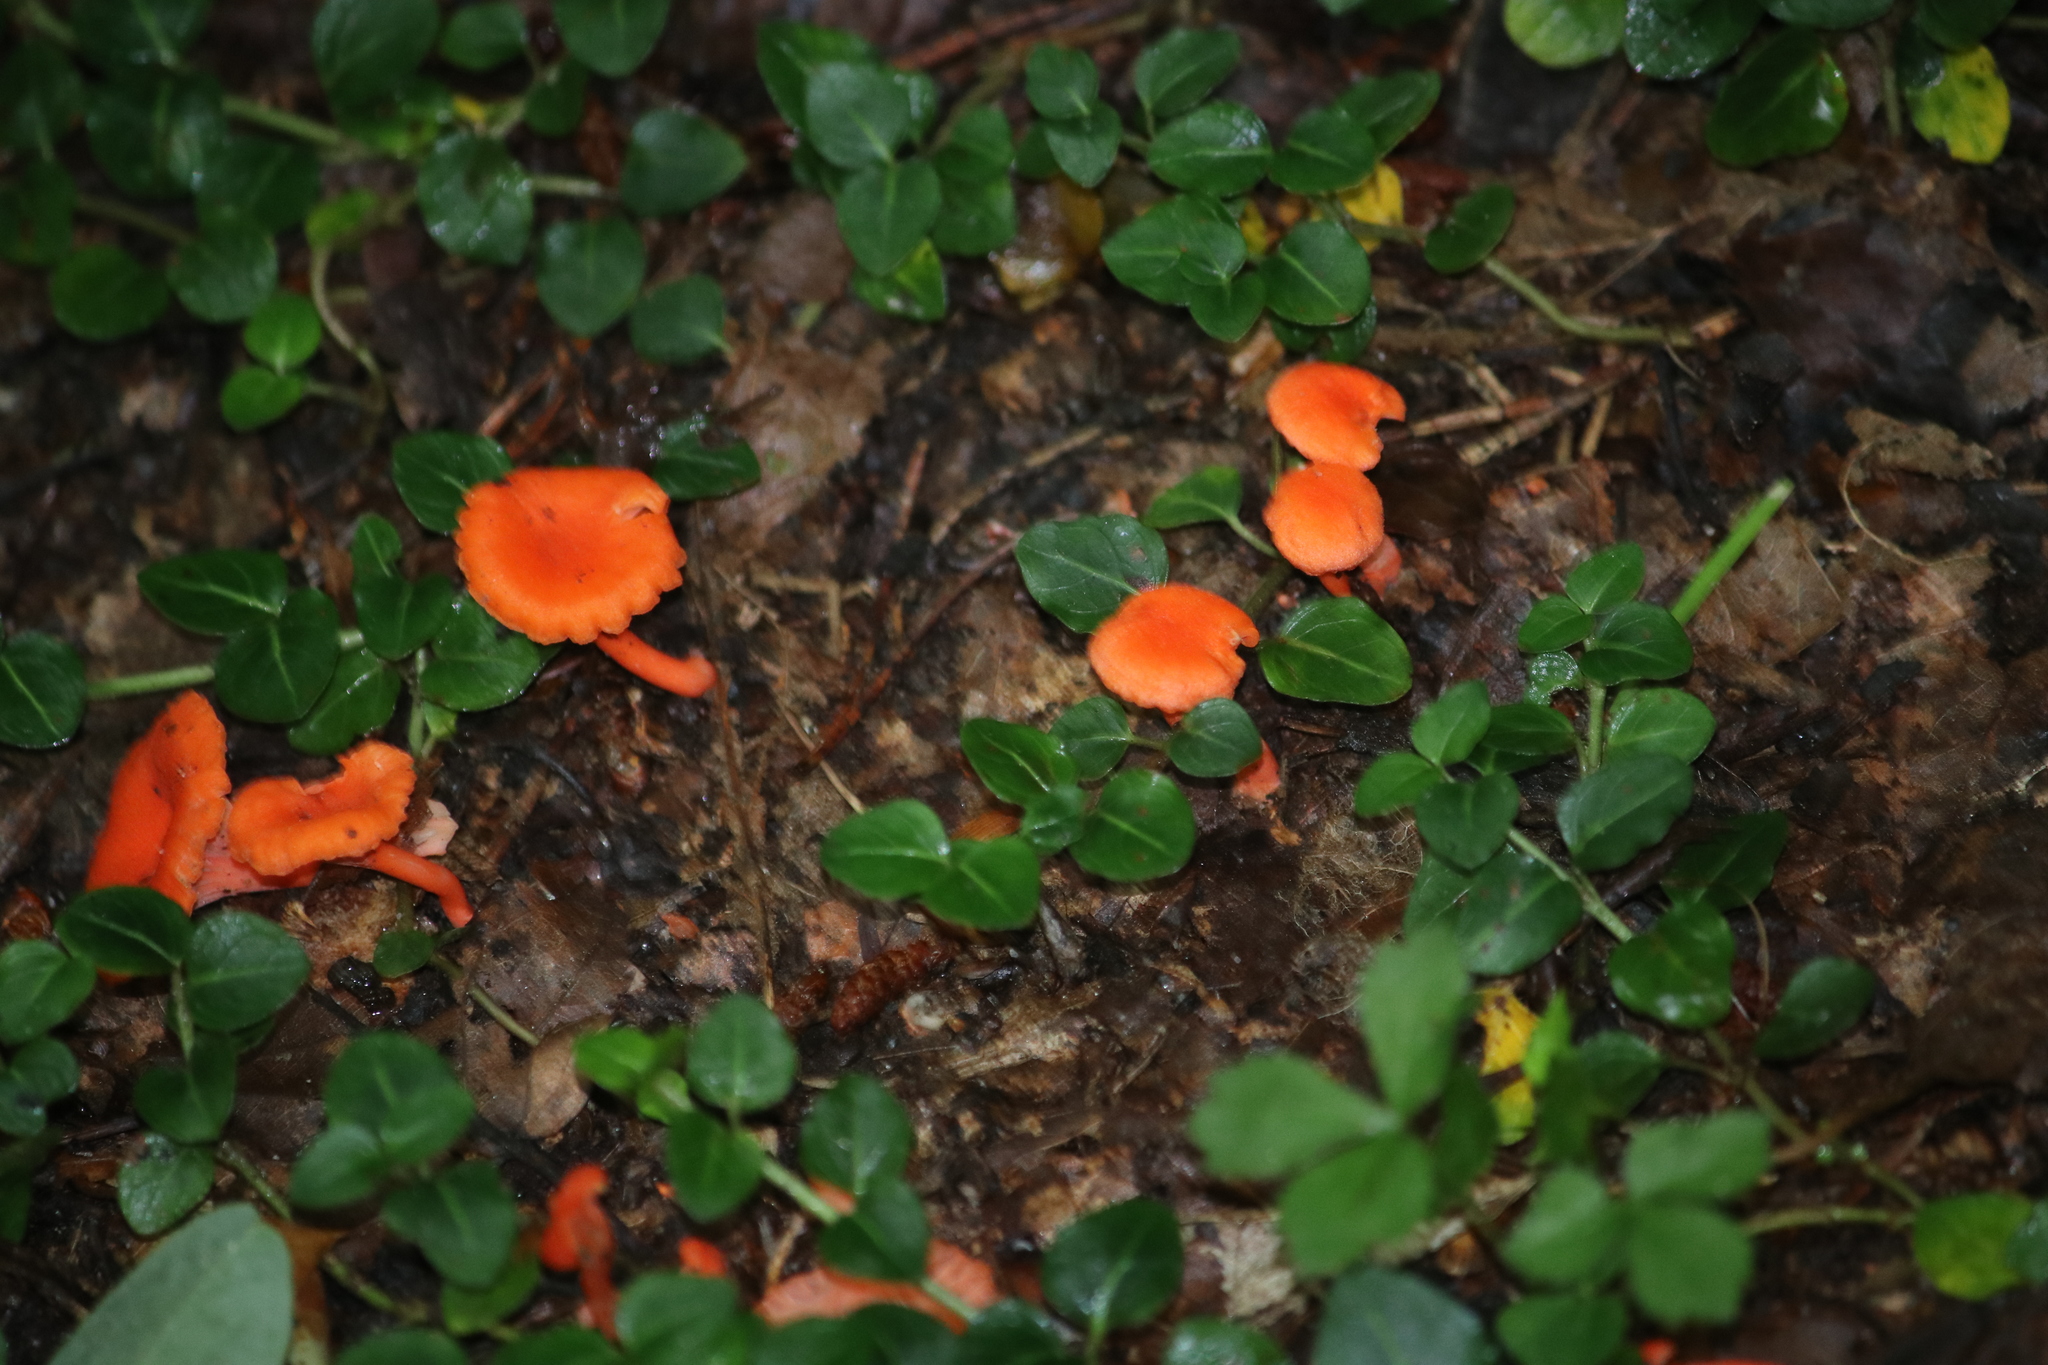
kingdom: Fungi
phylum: Basidiomycota
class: Agaricomycetes
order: Cantharellales
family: Hydnaceae
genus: Cantharellus
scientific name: Cantharellus cinnabarinus
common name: Cinnabar chanterelle
